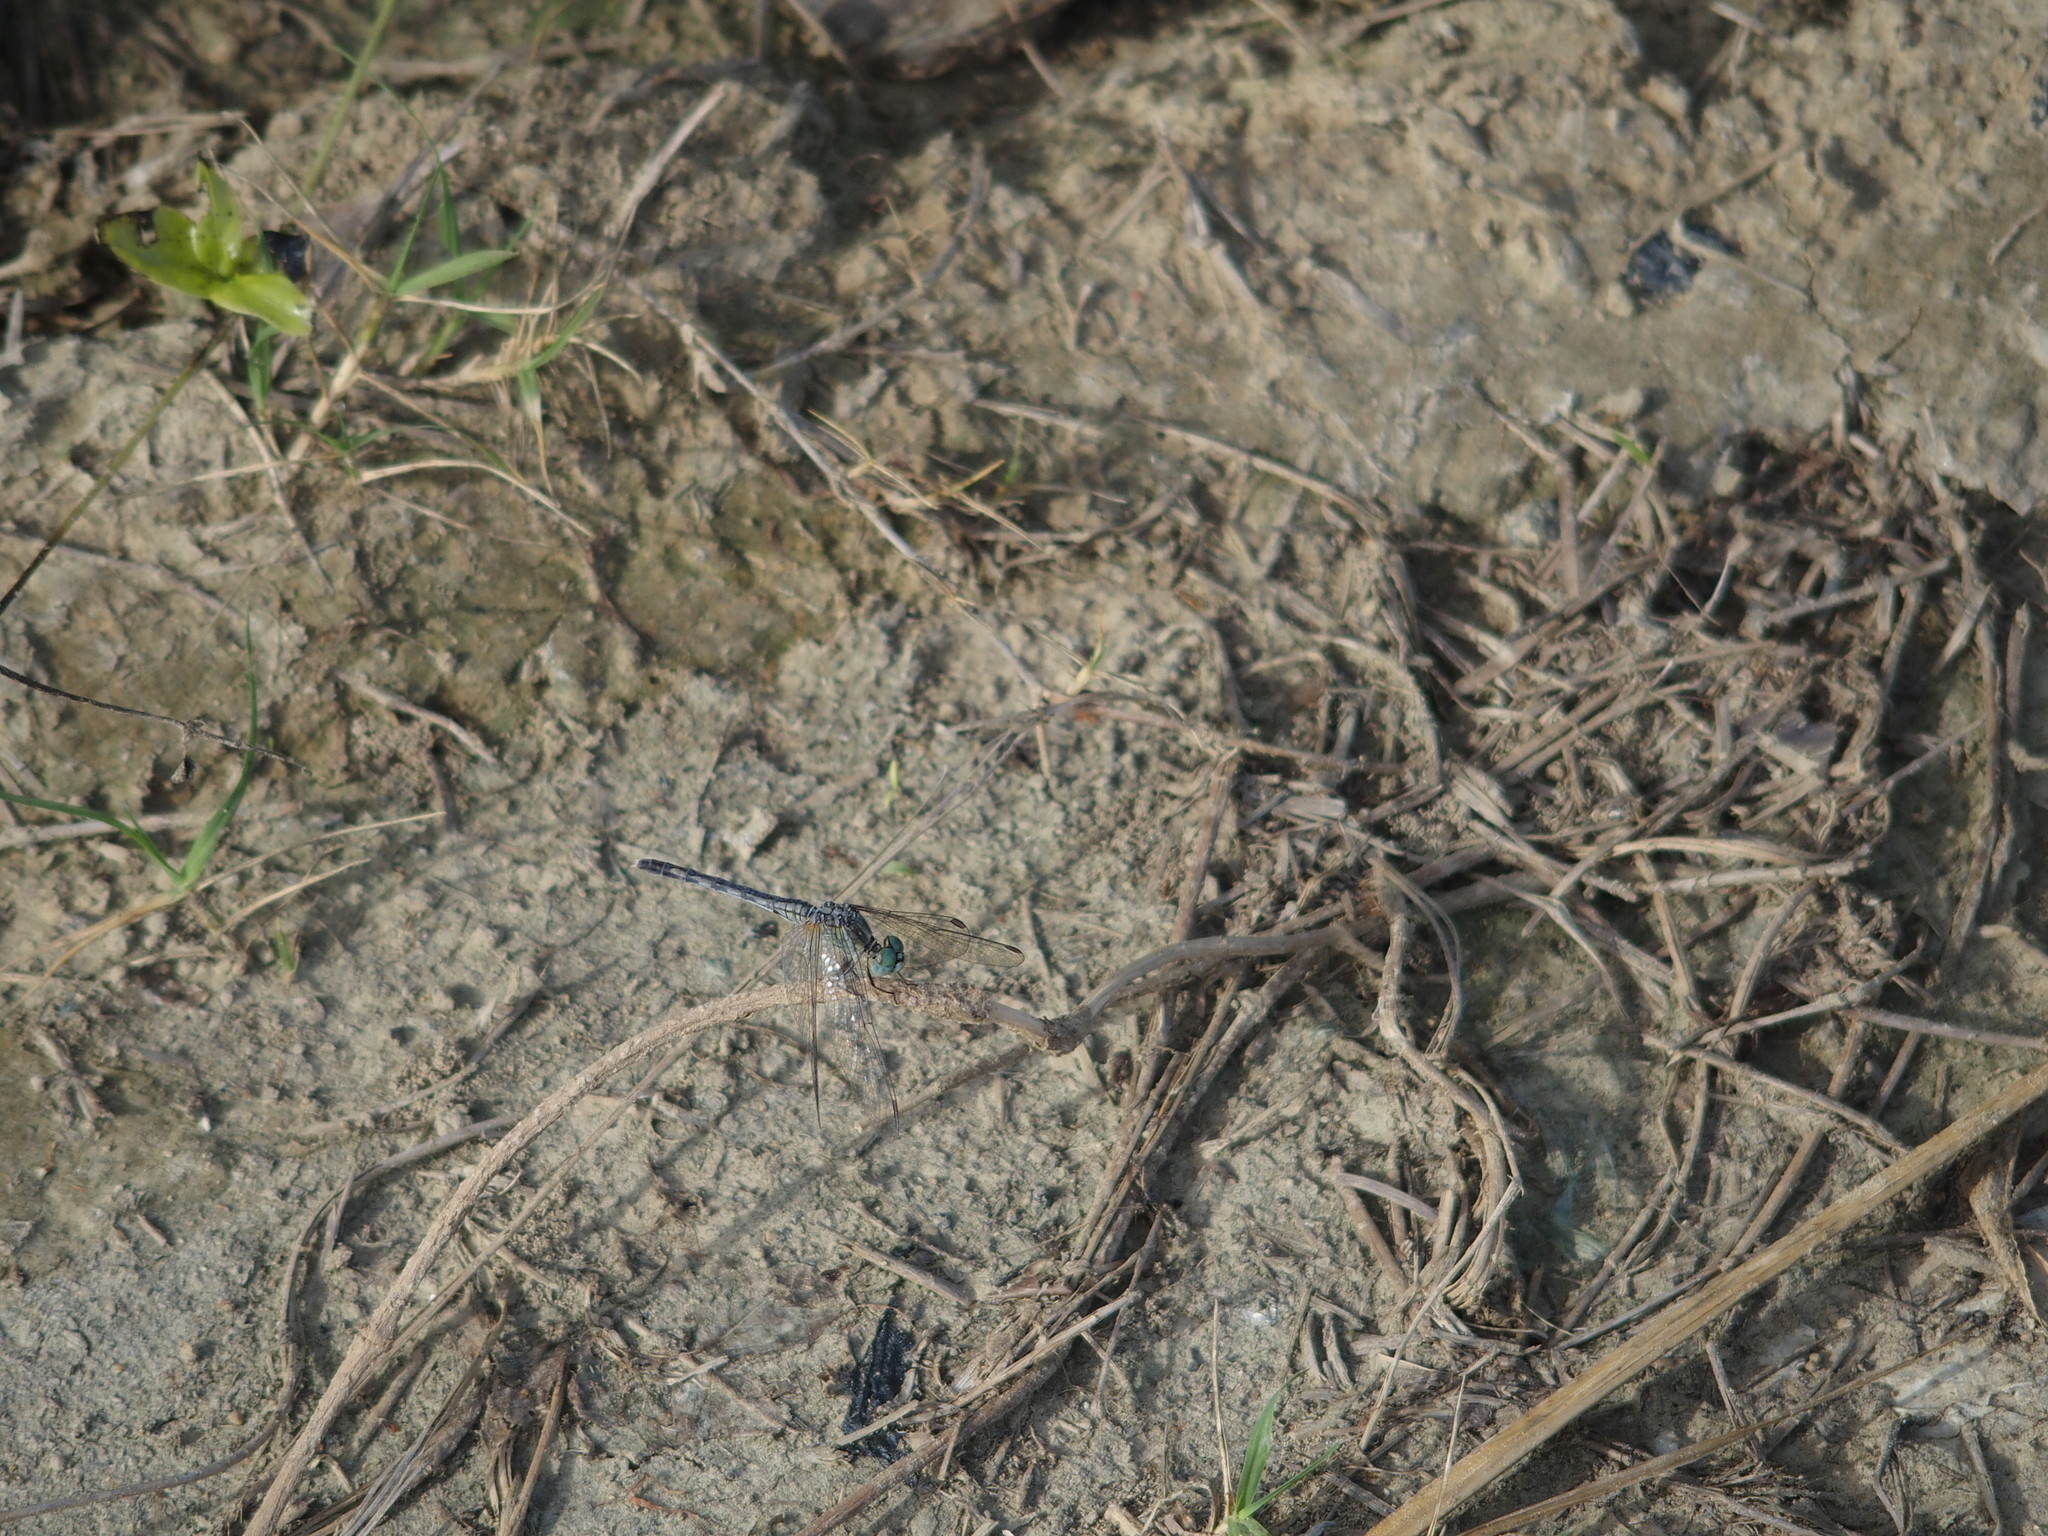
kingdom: Animalia
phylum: Arthropoda
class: Insecta
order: Odonata
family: Libellulidae
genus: Diplacodes
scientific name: Diplacodes trivialis
